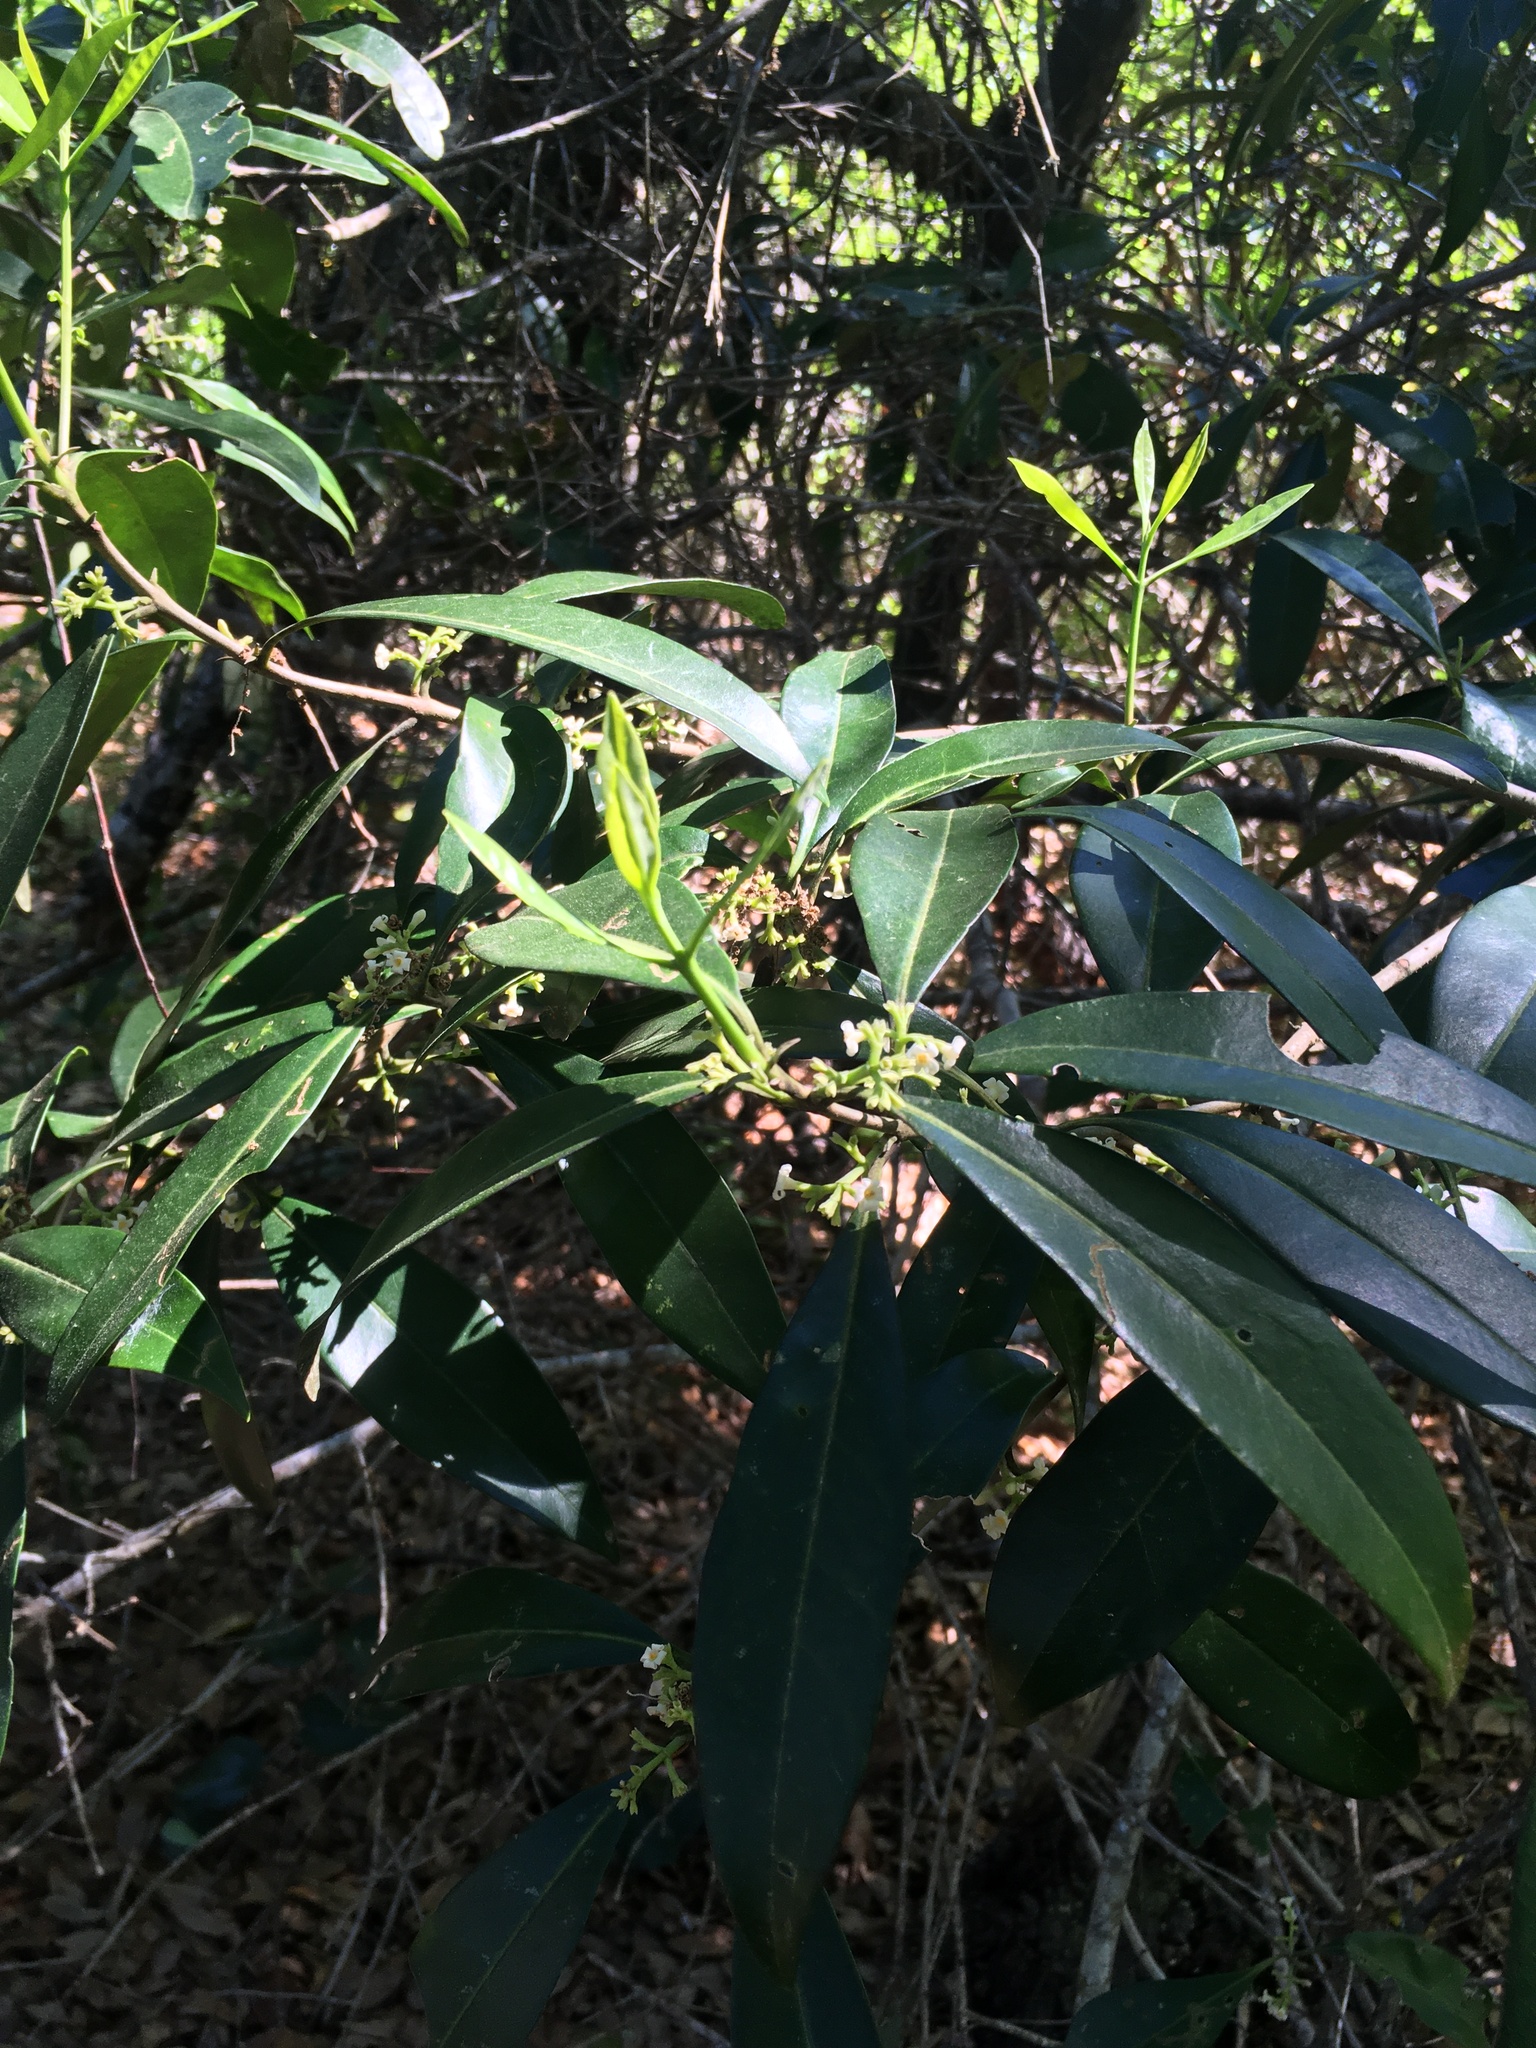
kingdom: Plantae
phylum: Tracheophyta
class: Magnoliopsida
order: Lamiales
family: Oleaceae
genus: Cartrema
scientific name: Cartrema americana
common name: Devilwood
